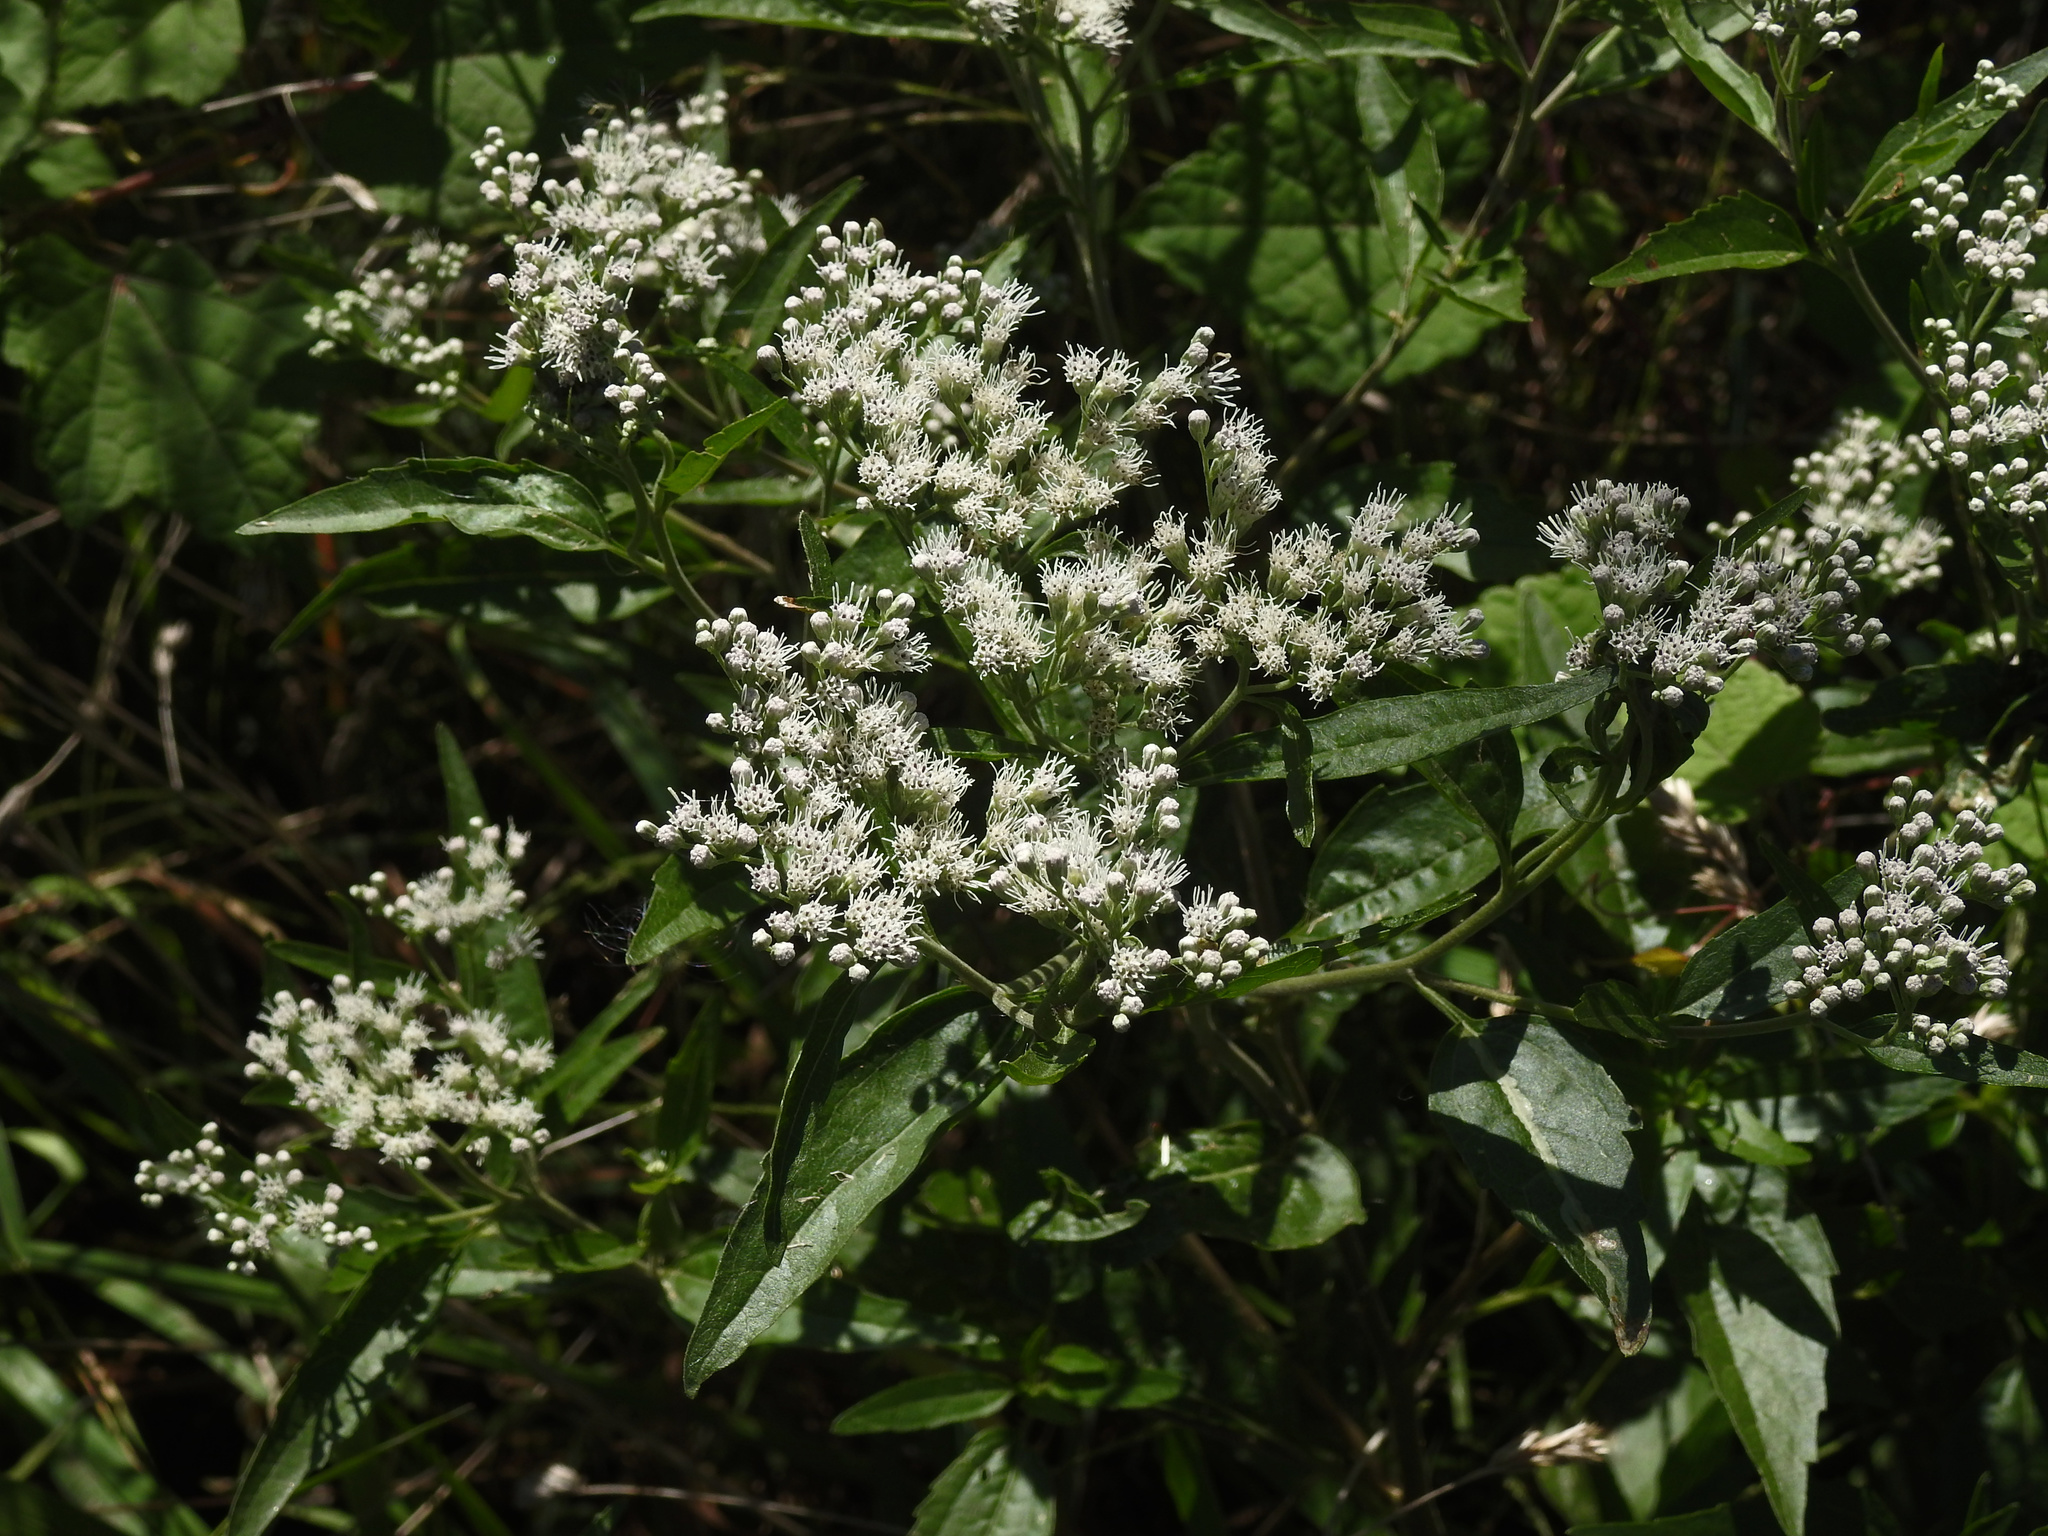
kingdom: Plantae
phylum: Tracheophyta
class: Magnoliopsida
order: Asterales
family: Asteraceae
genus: Eupatorium
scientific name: Eupatorium serotinum
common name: Late boneset
